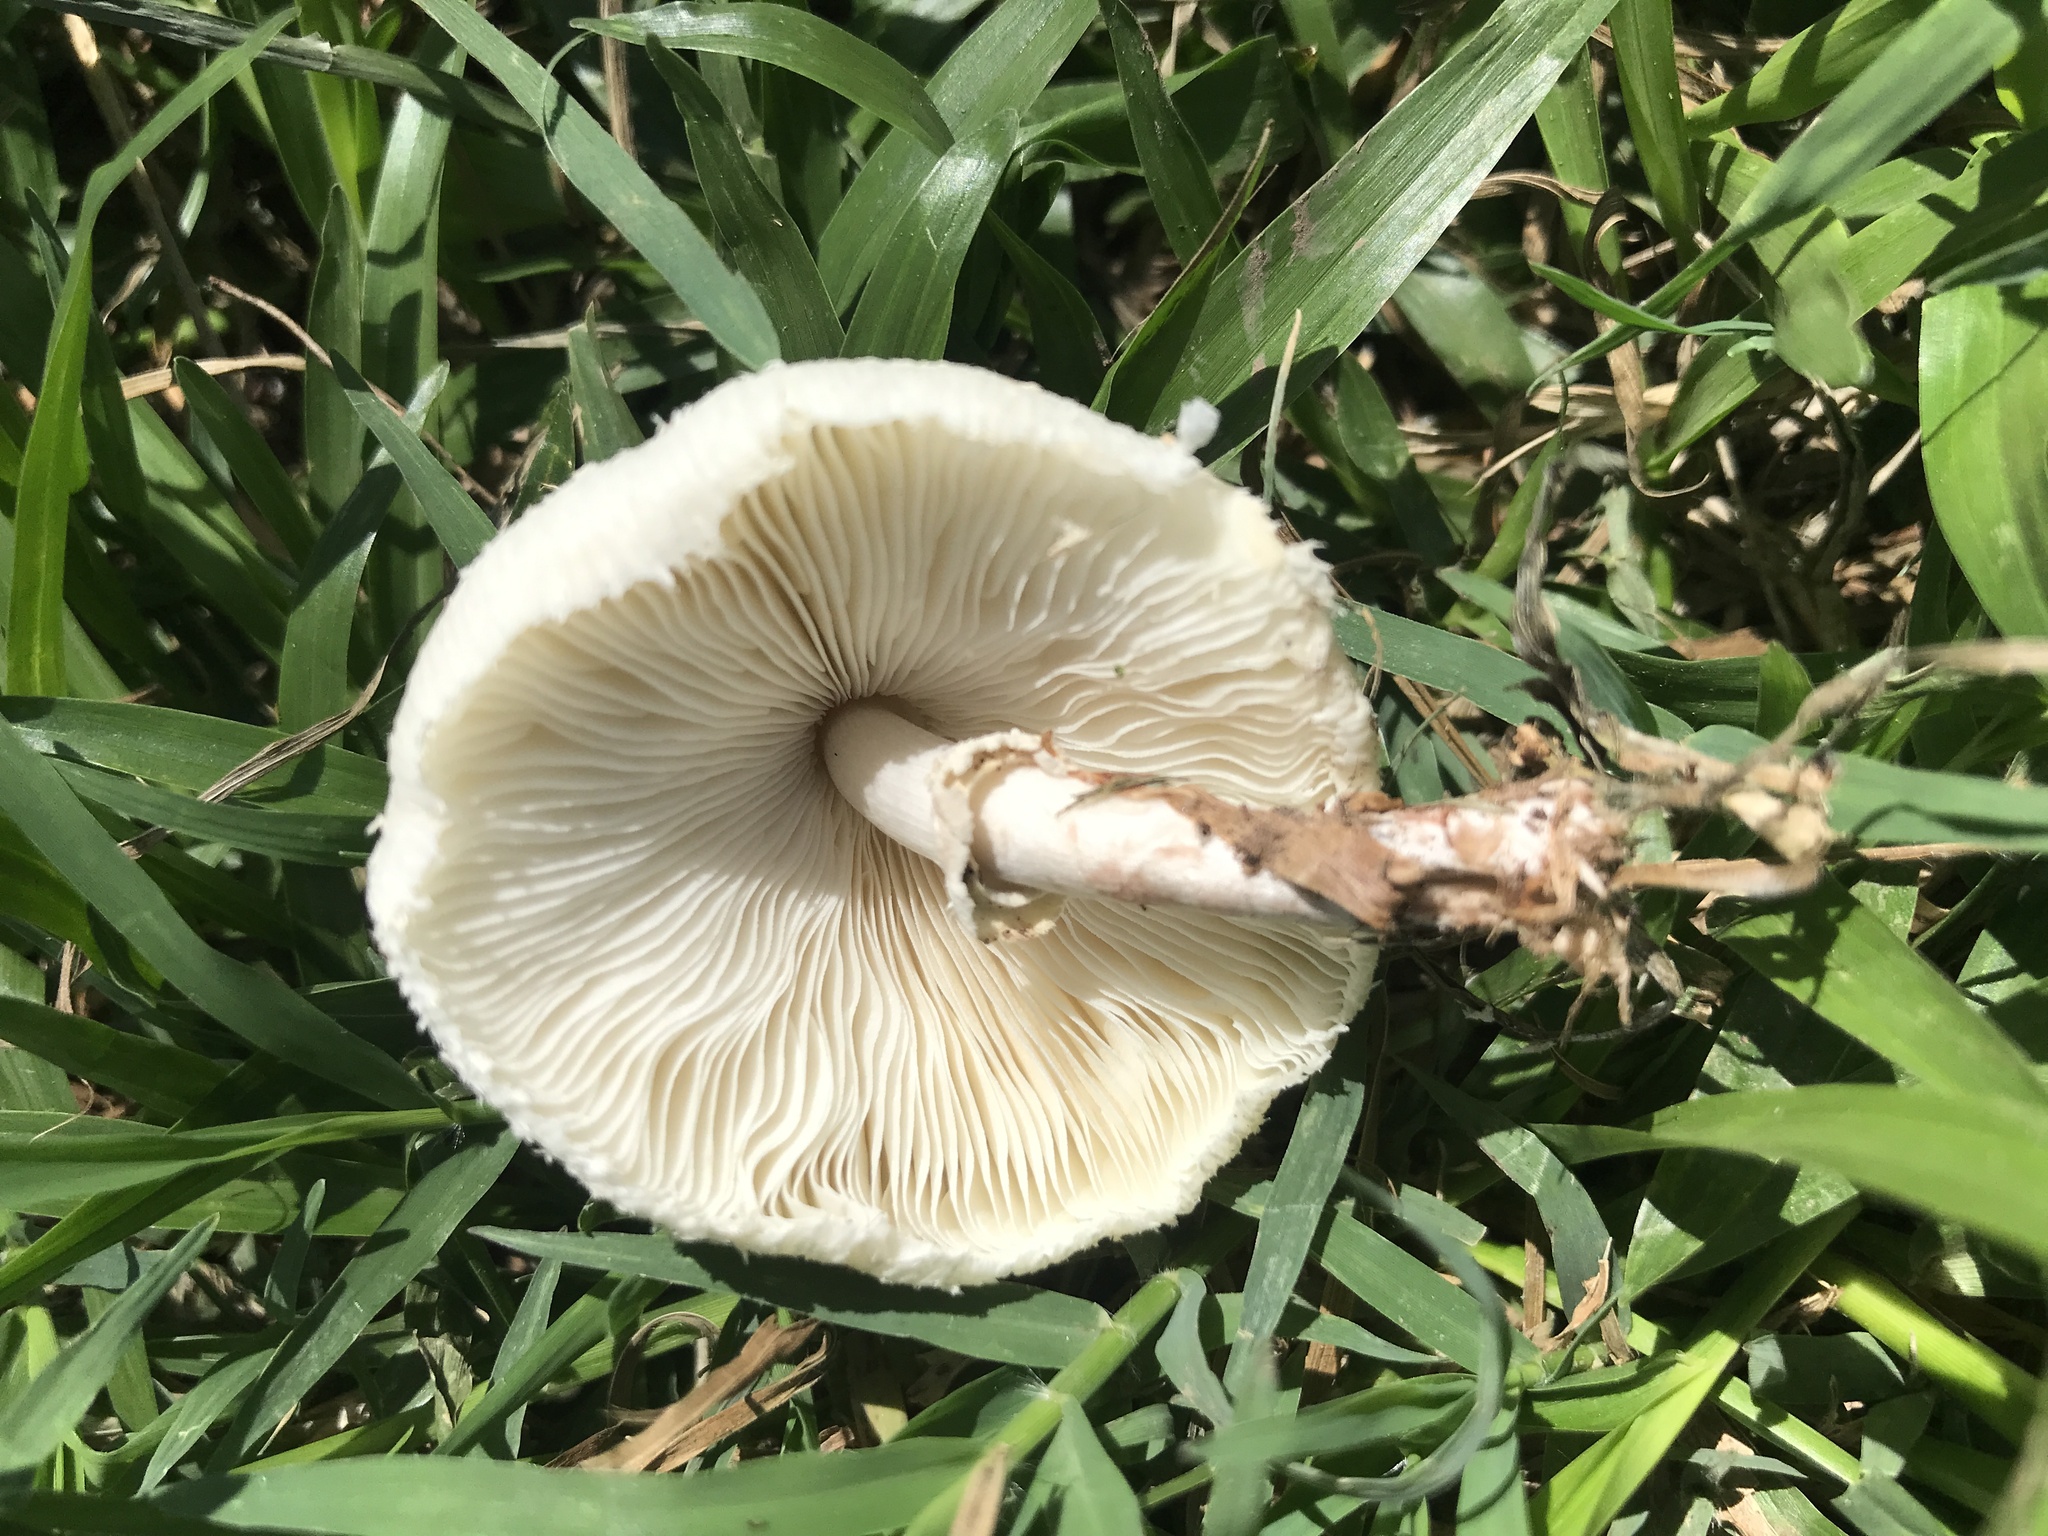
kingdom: Fungi
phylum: Basidiomycota
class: Agaricomycetes
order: Agaricales
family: Agaricaceae
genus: Chlorophyllum
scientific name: Chlorophyllum hortense
